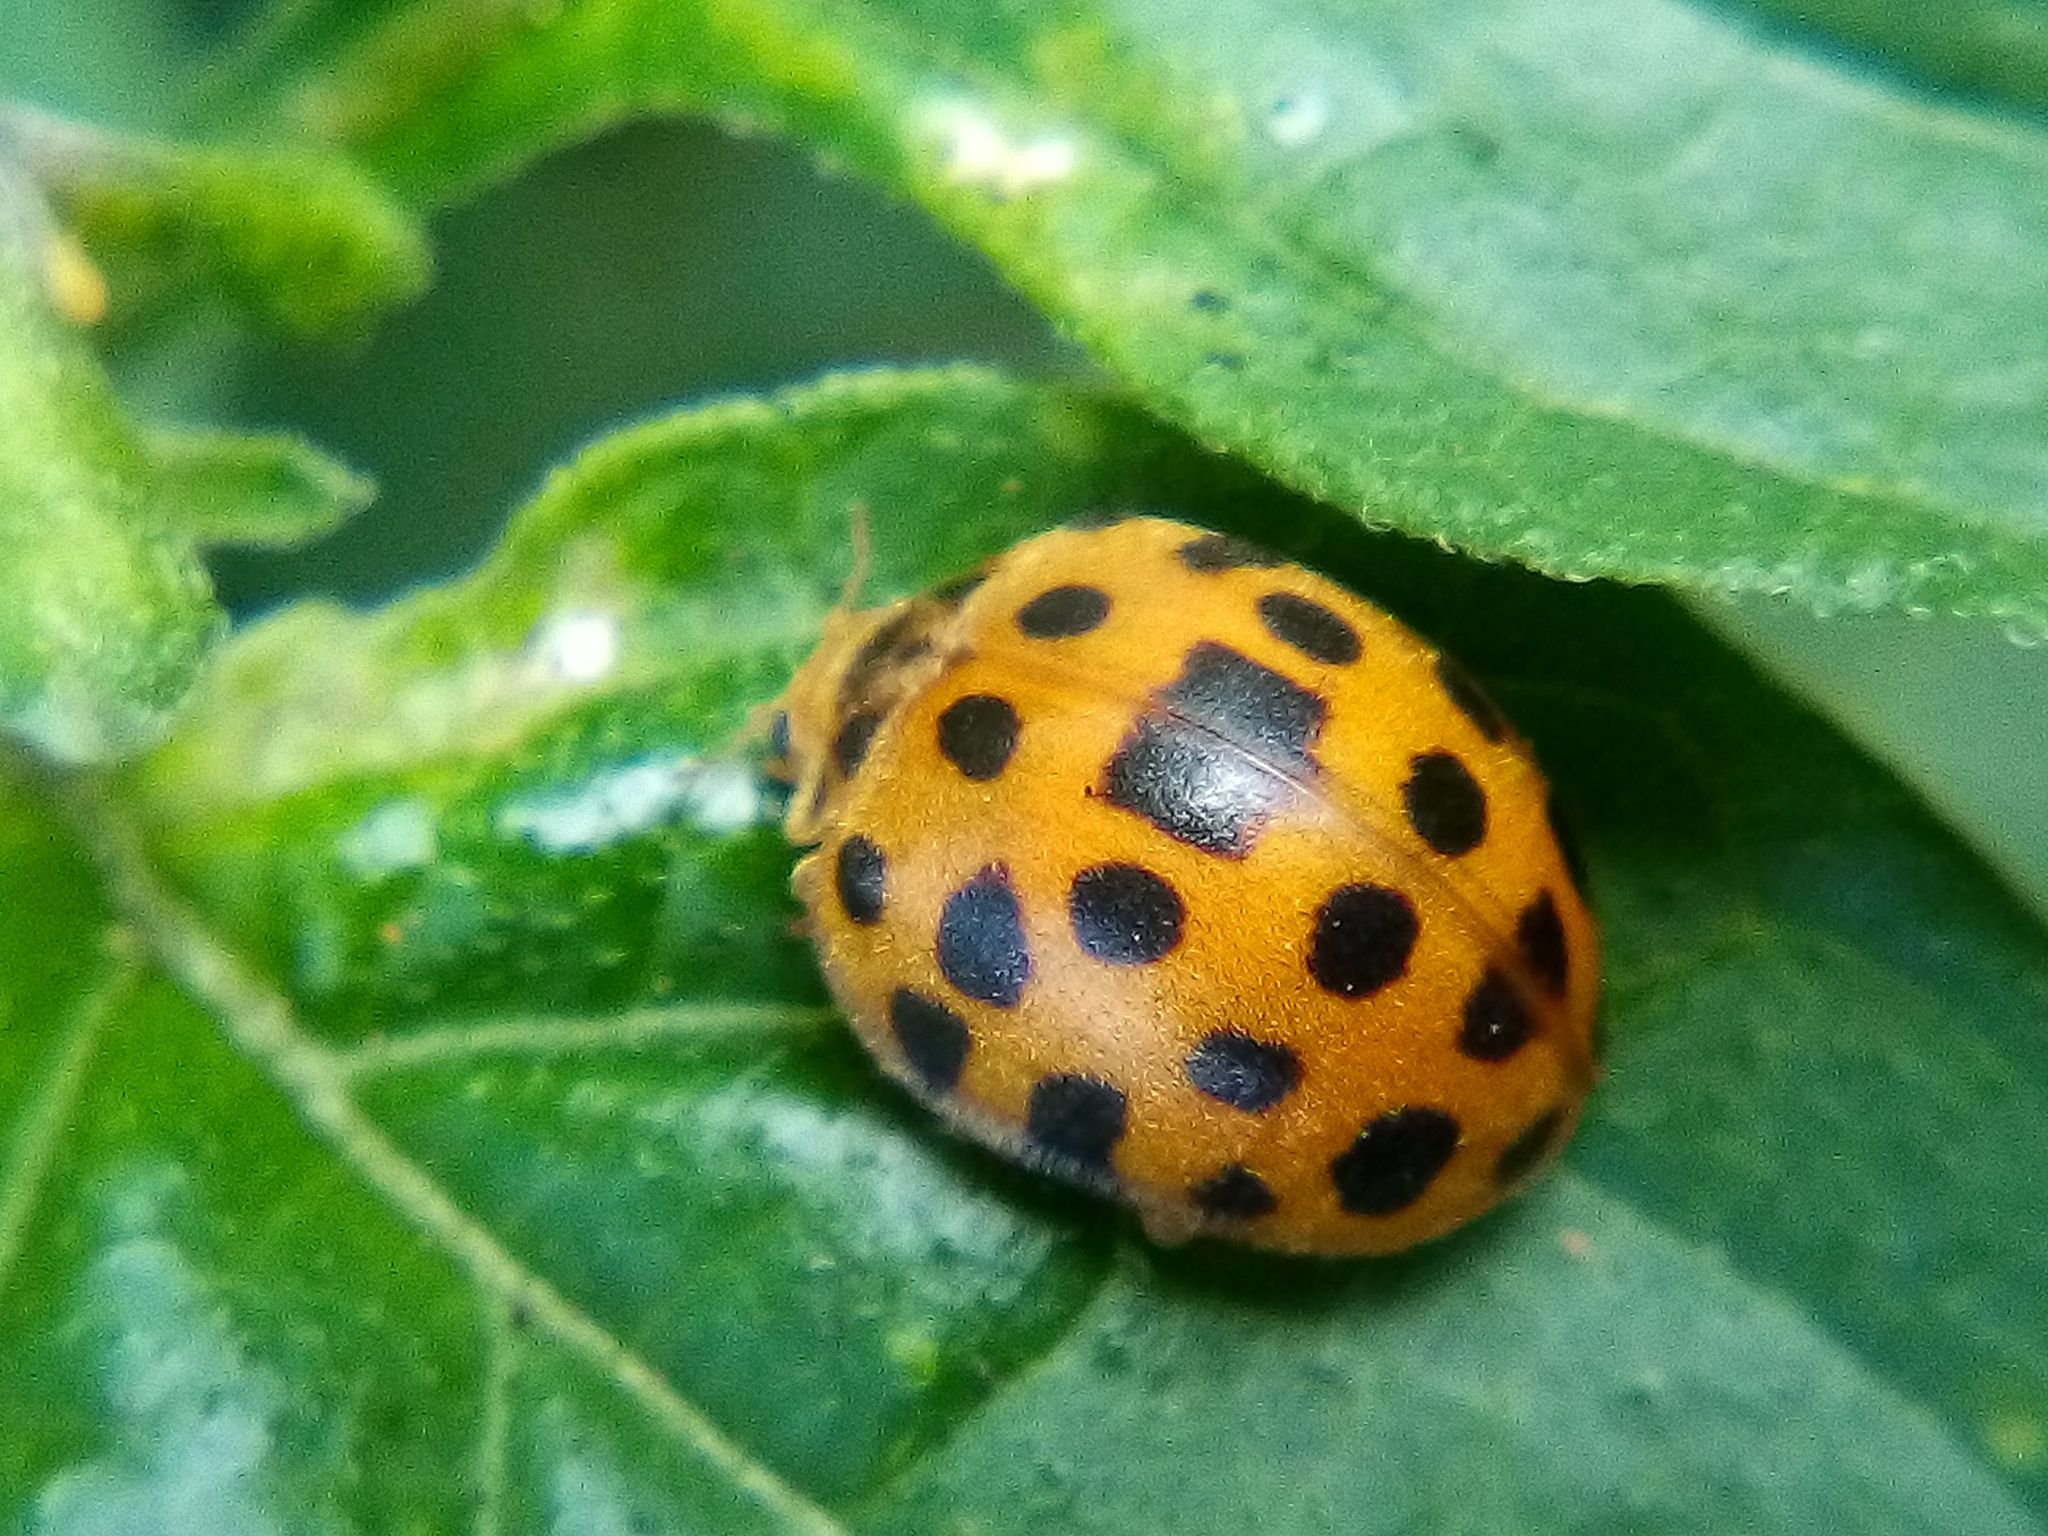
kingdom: Animalia
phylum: Arthropoda
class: Insecta
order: Coleoptera
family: Coccinellidae
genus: Henosepilachna
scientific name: Henosepilachna vigintioctopunctata
